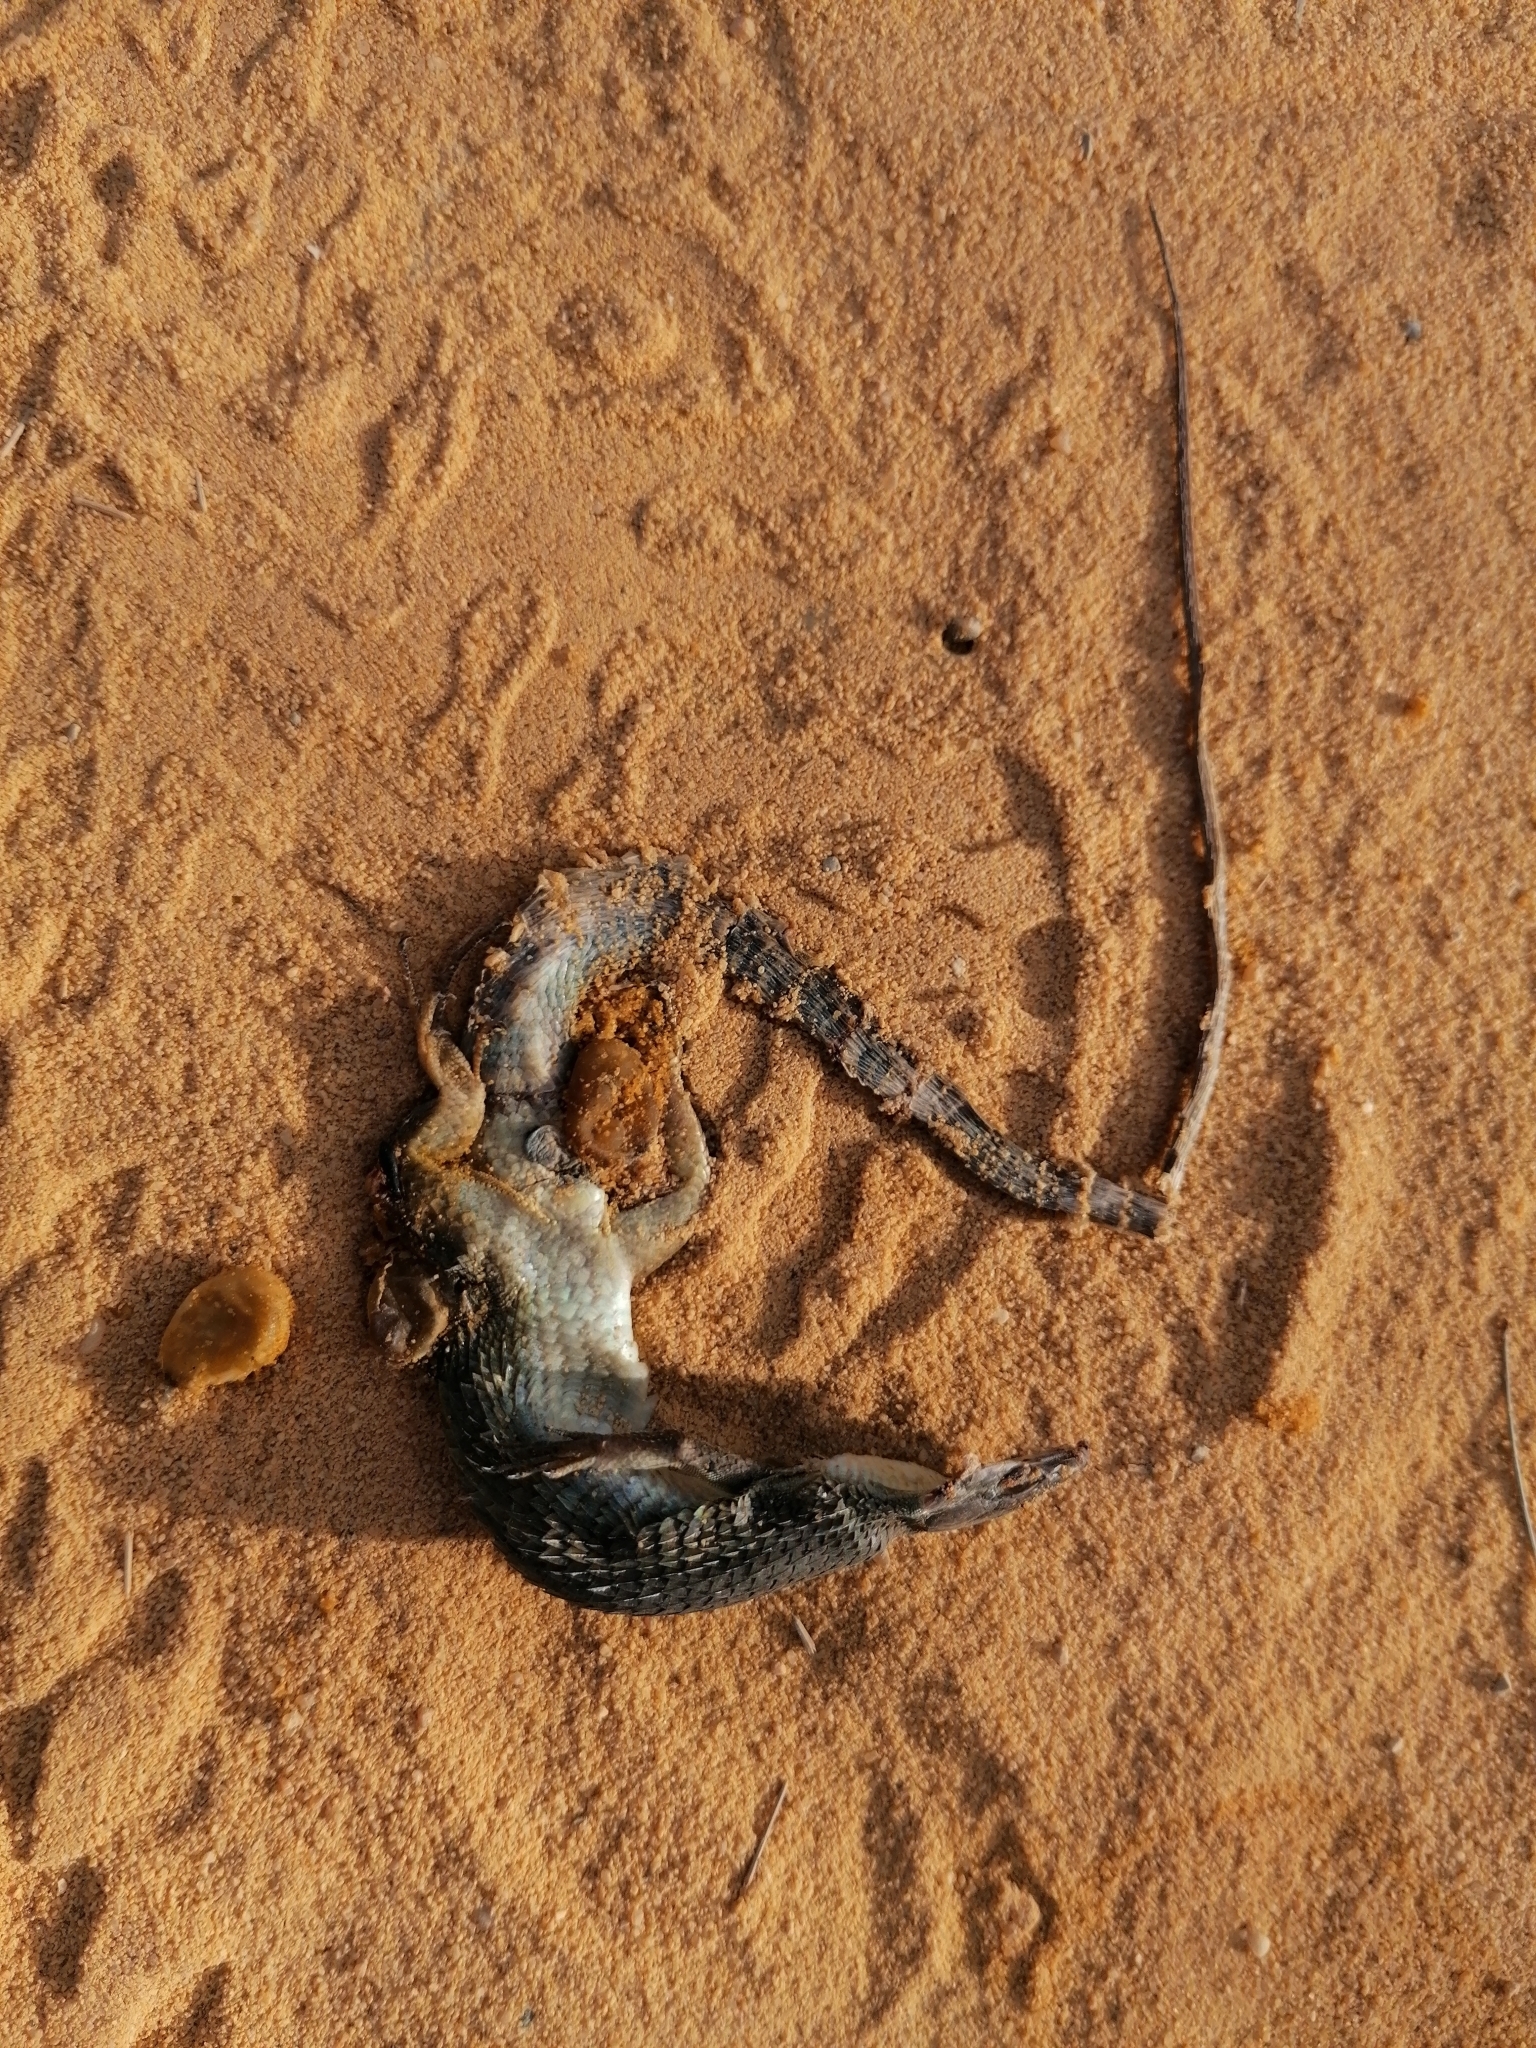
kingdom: Animalia
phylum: Chordata
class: Squamata
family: Lacertidae
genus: Psammodromus
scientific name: Psammodromus algirus
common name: Algerian psammodromus
